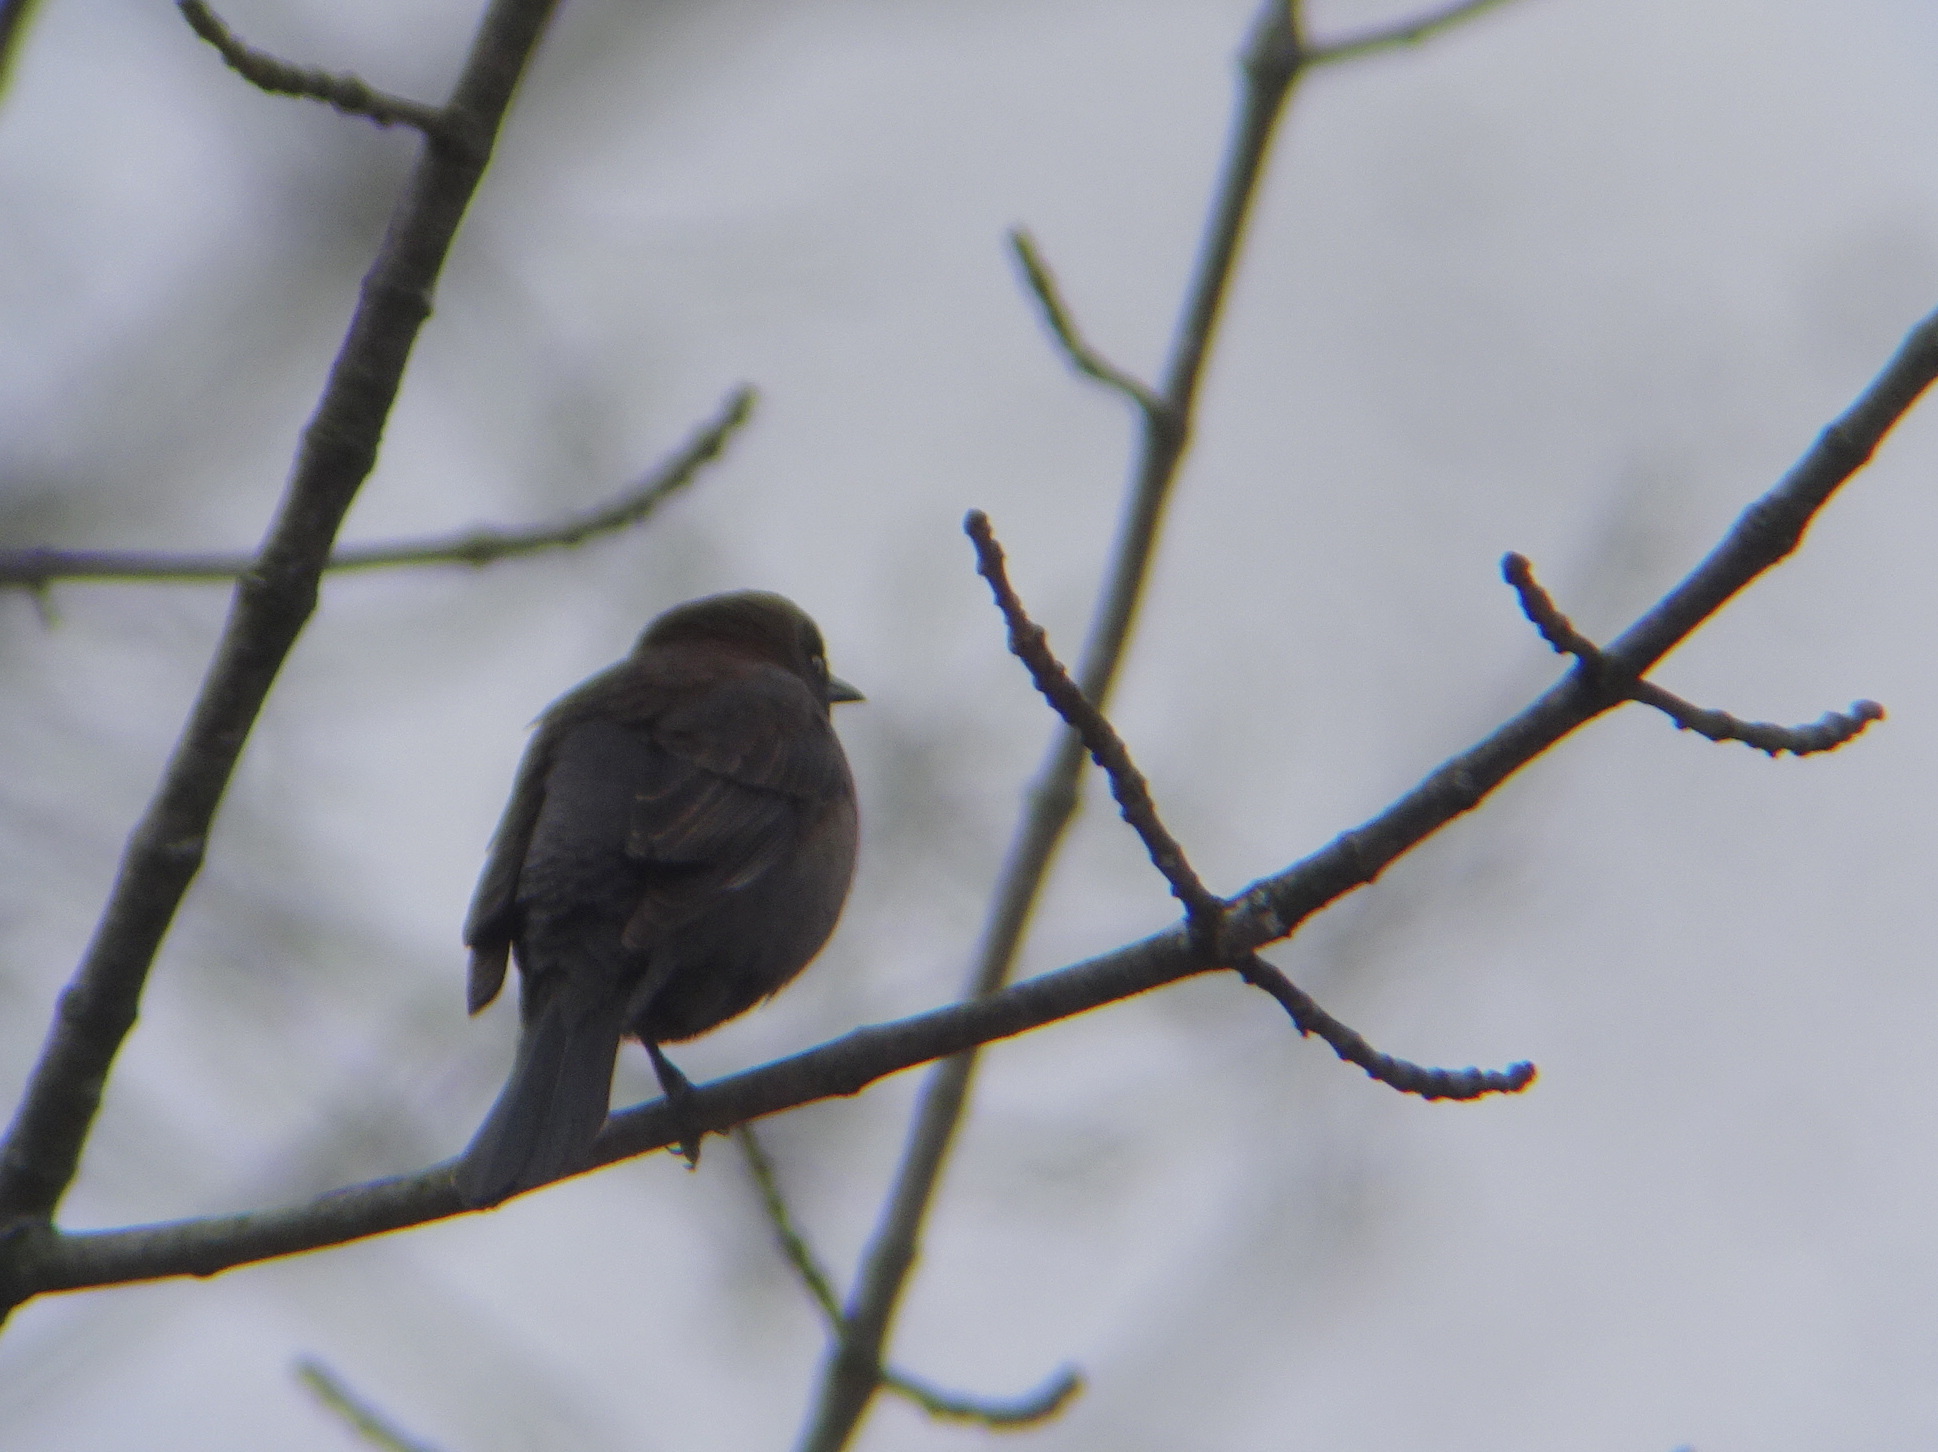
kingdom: Animalia
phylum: Chordata
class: Aves
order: Passeriformes
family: Icteridae
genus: Euphagus
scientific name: Euphagus carolinus
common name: Rusty blackbird
